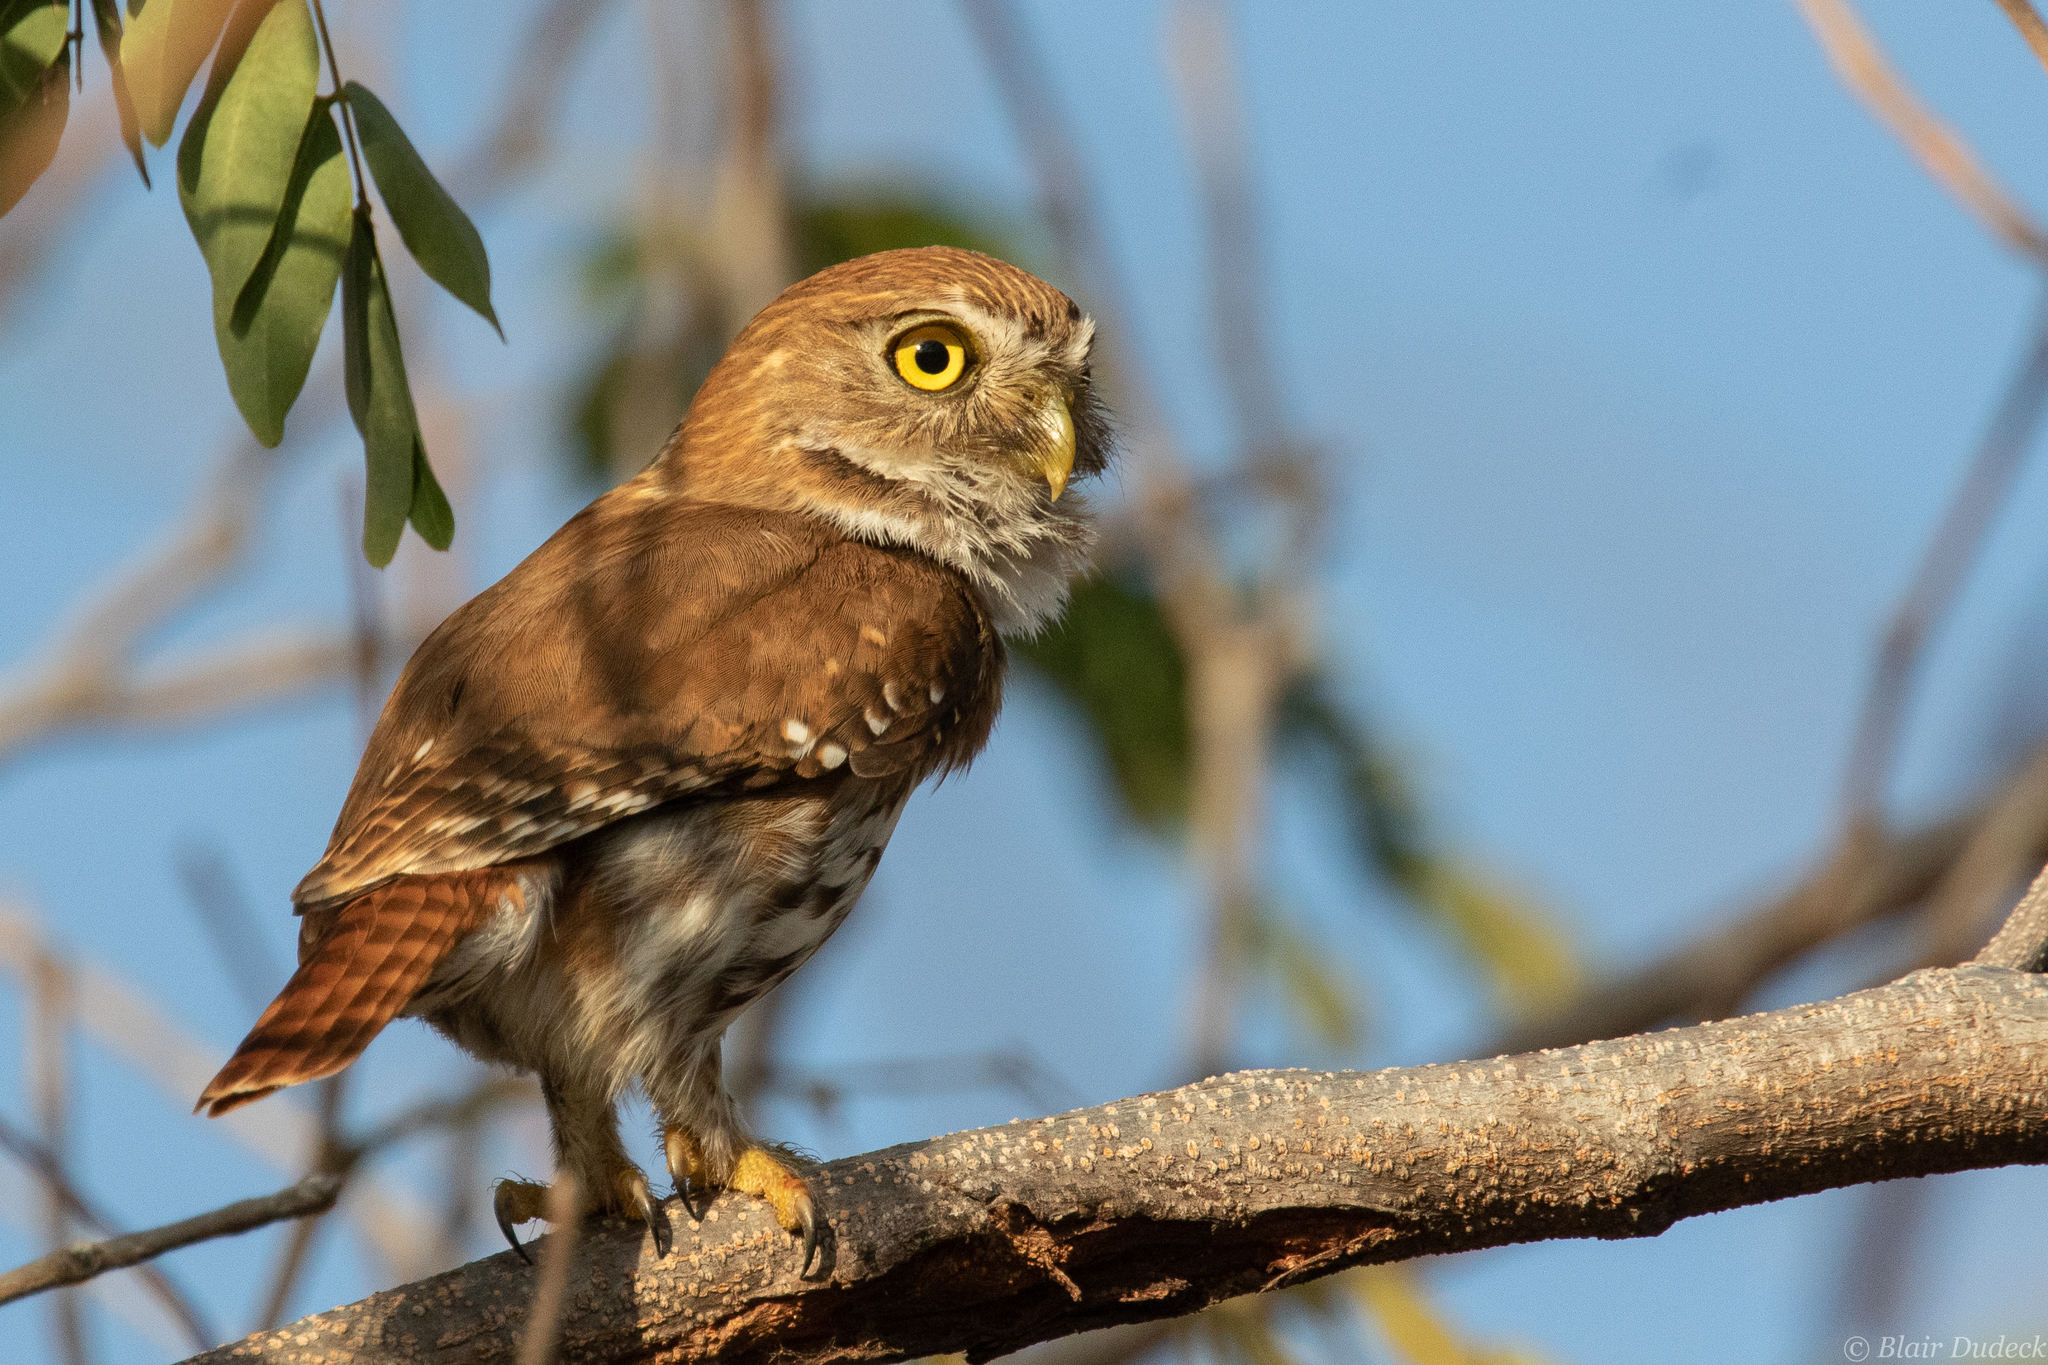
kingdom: Animalia
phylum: Chordata
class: Aves
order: Strigiformes
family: Strigidae
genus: Glaucidium
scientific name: Glaucidium brasilianum
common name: Ferruginous pygmy-owl
